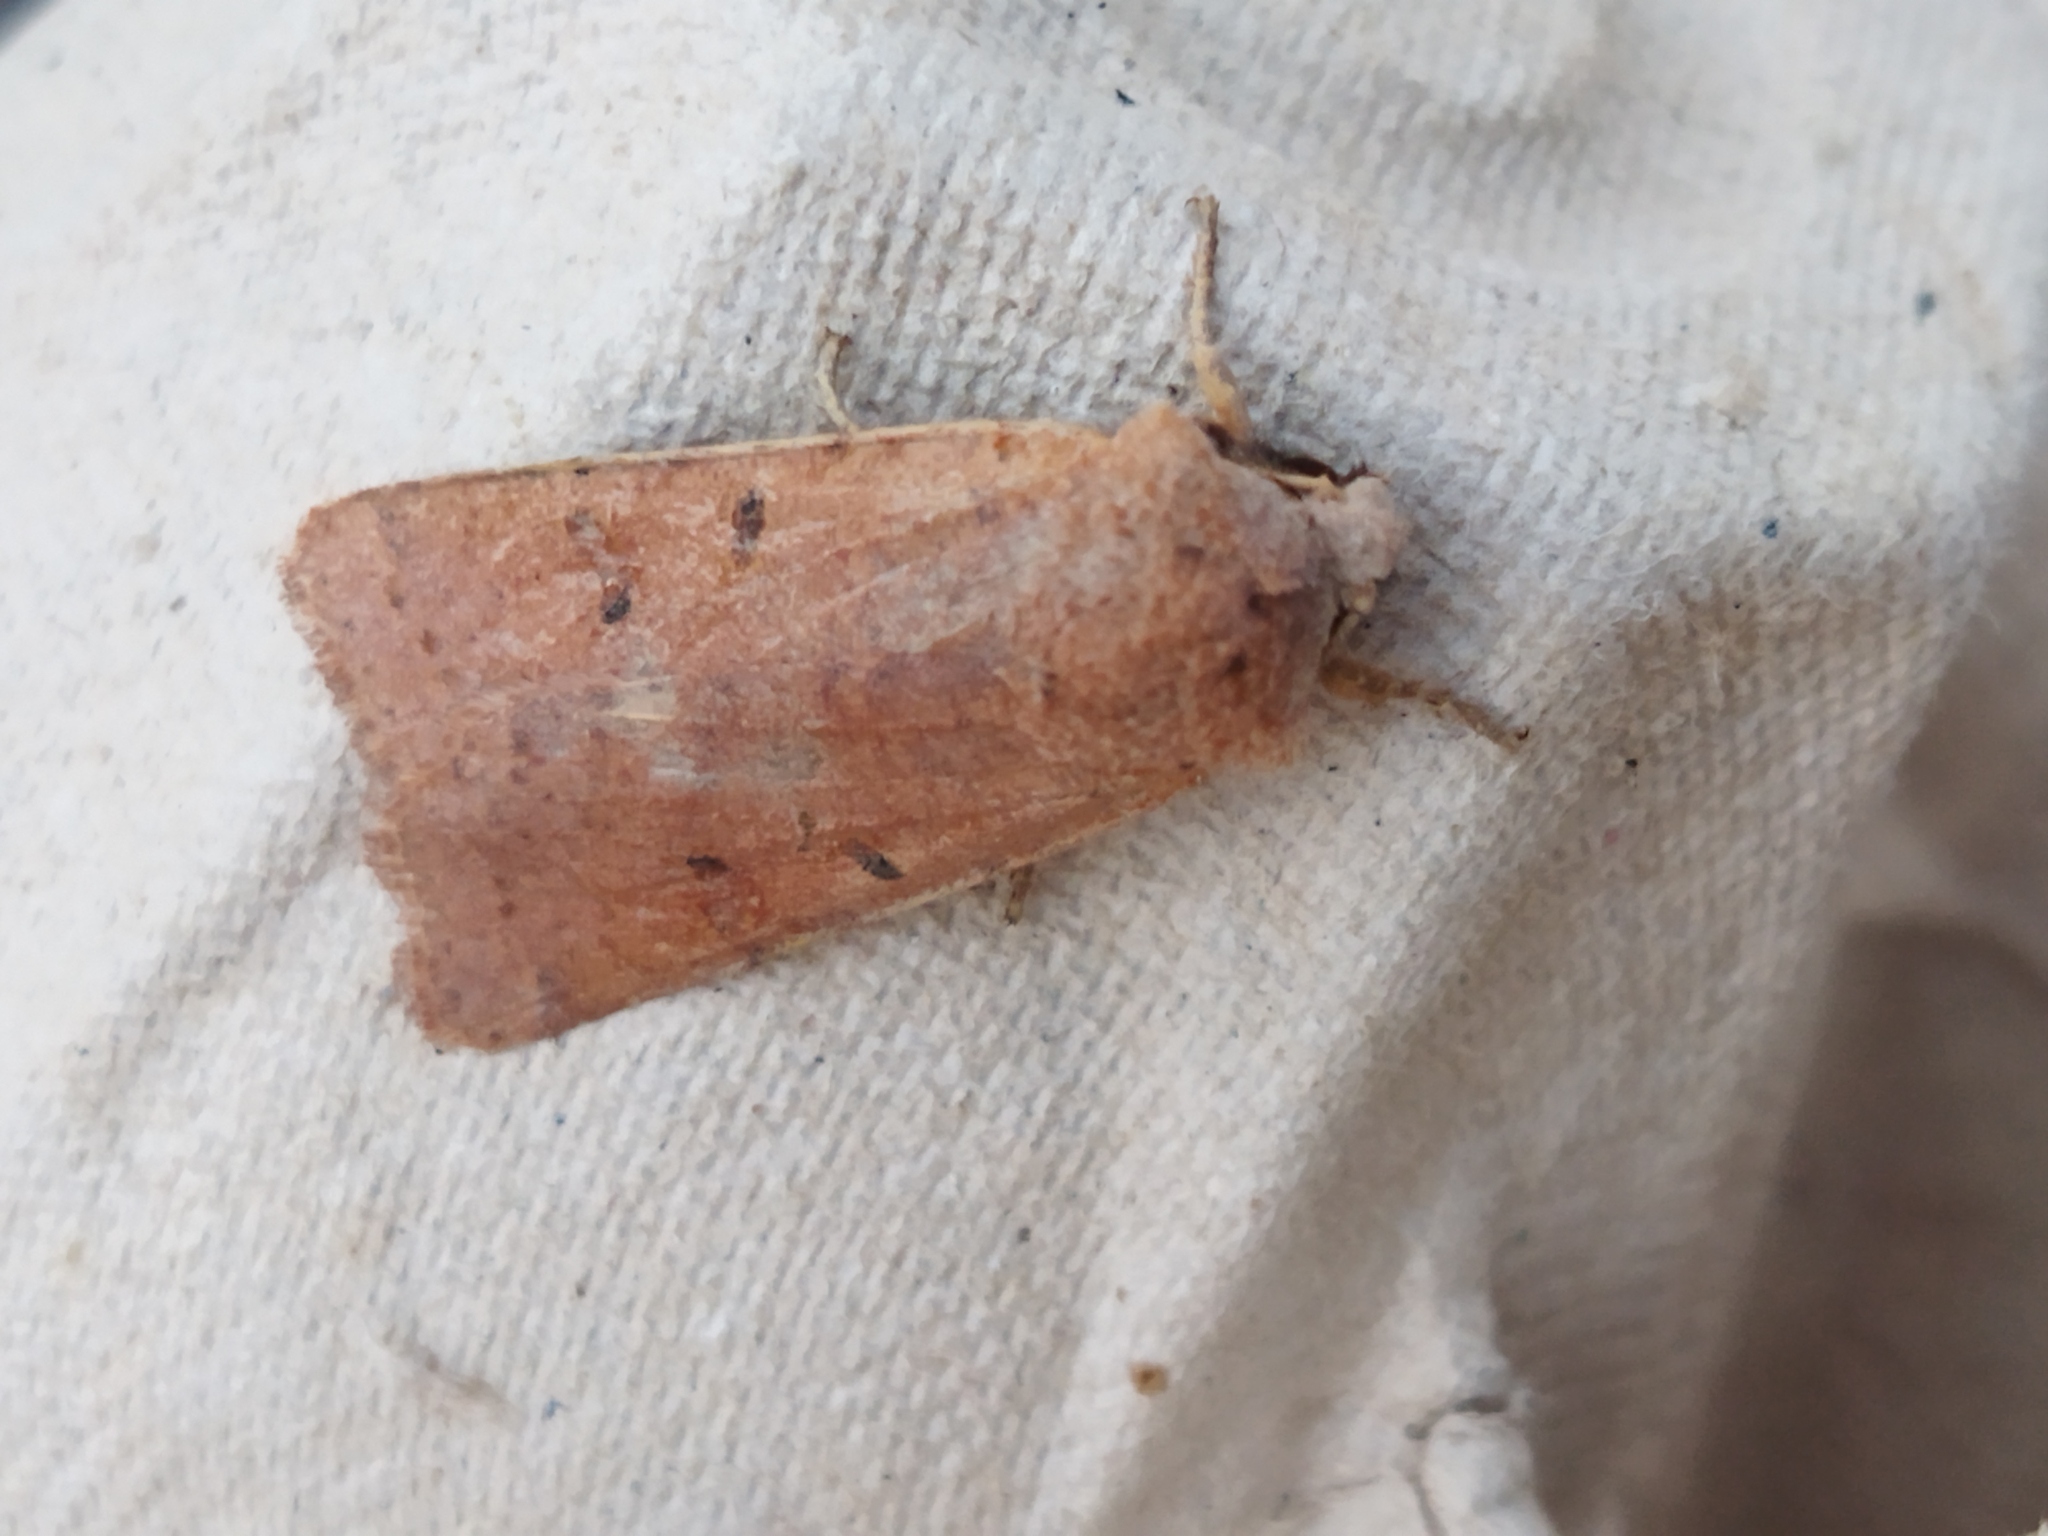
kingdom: Animalia
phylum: Arthropoda
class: Insecta
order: Lepidoptera
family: Noctuidae
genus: Agrochola
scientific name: Agrochola lychnidis
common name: Beaded chestnut
